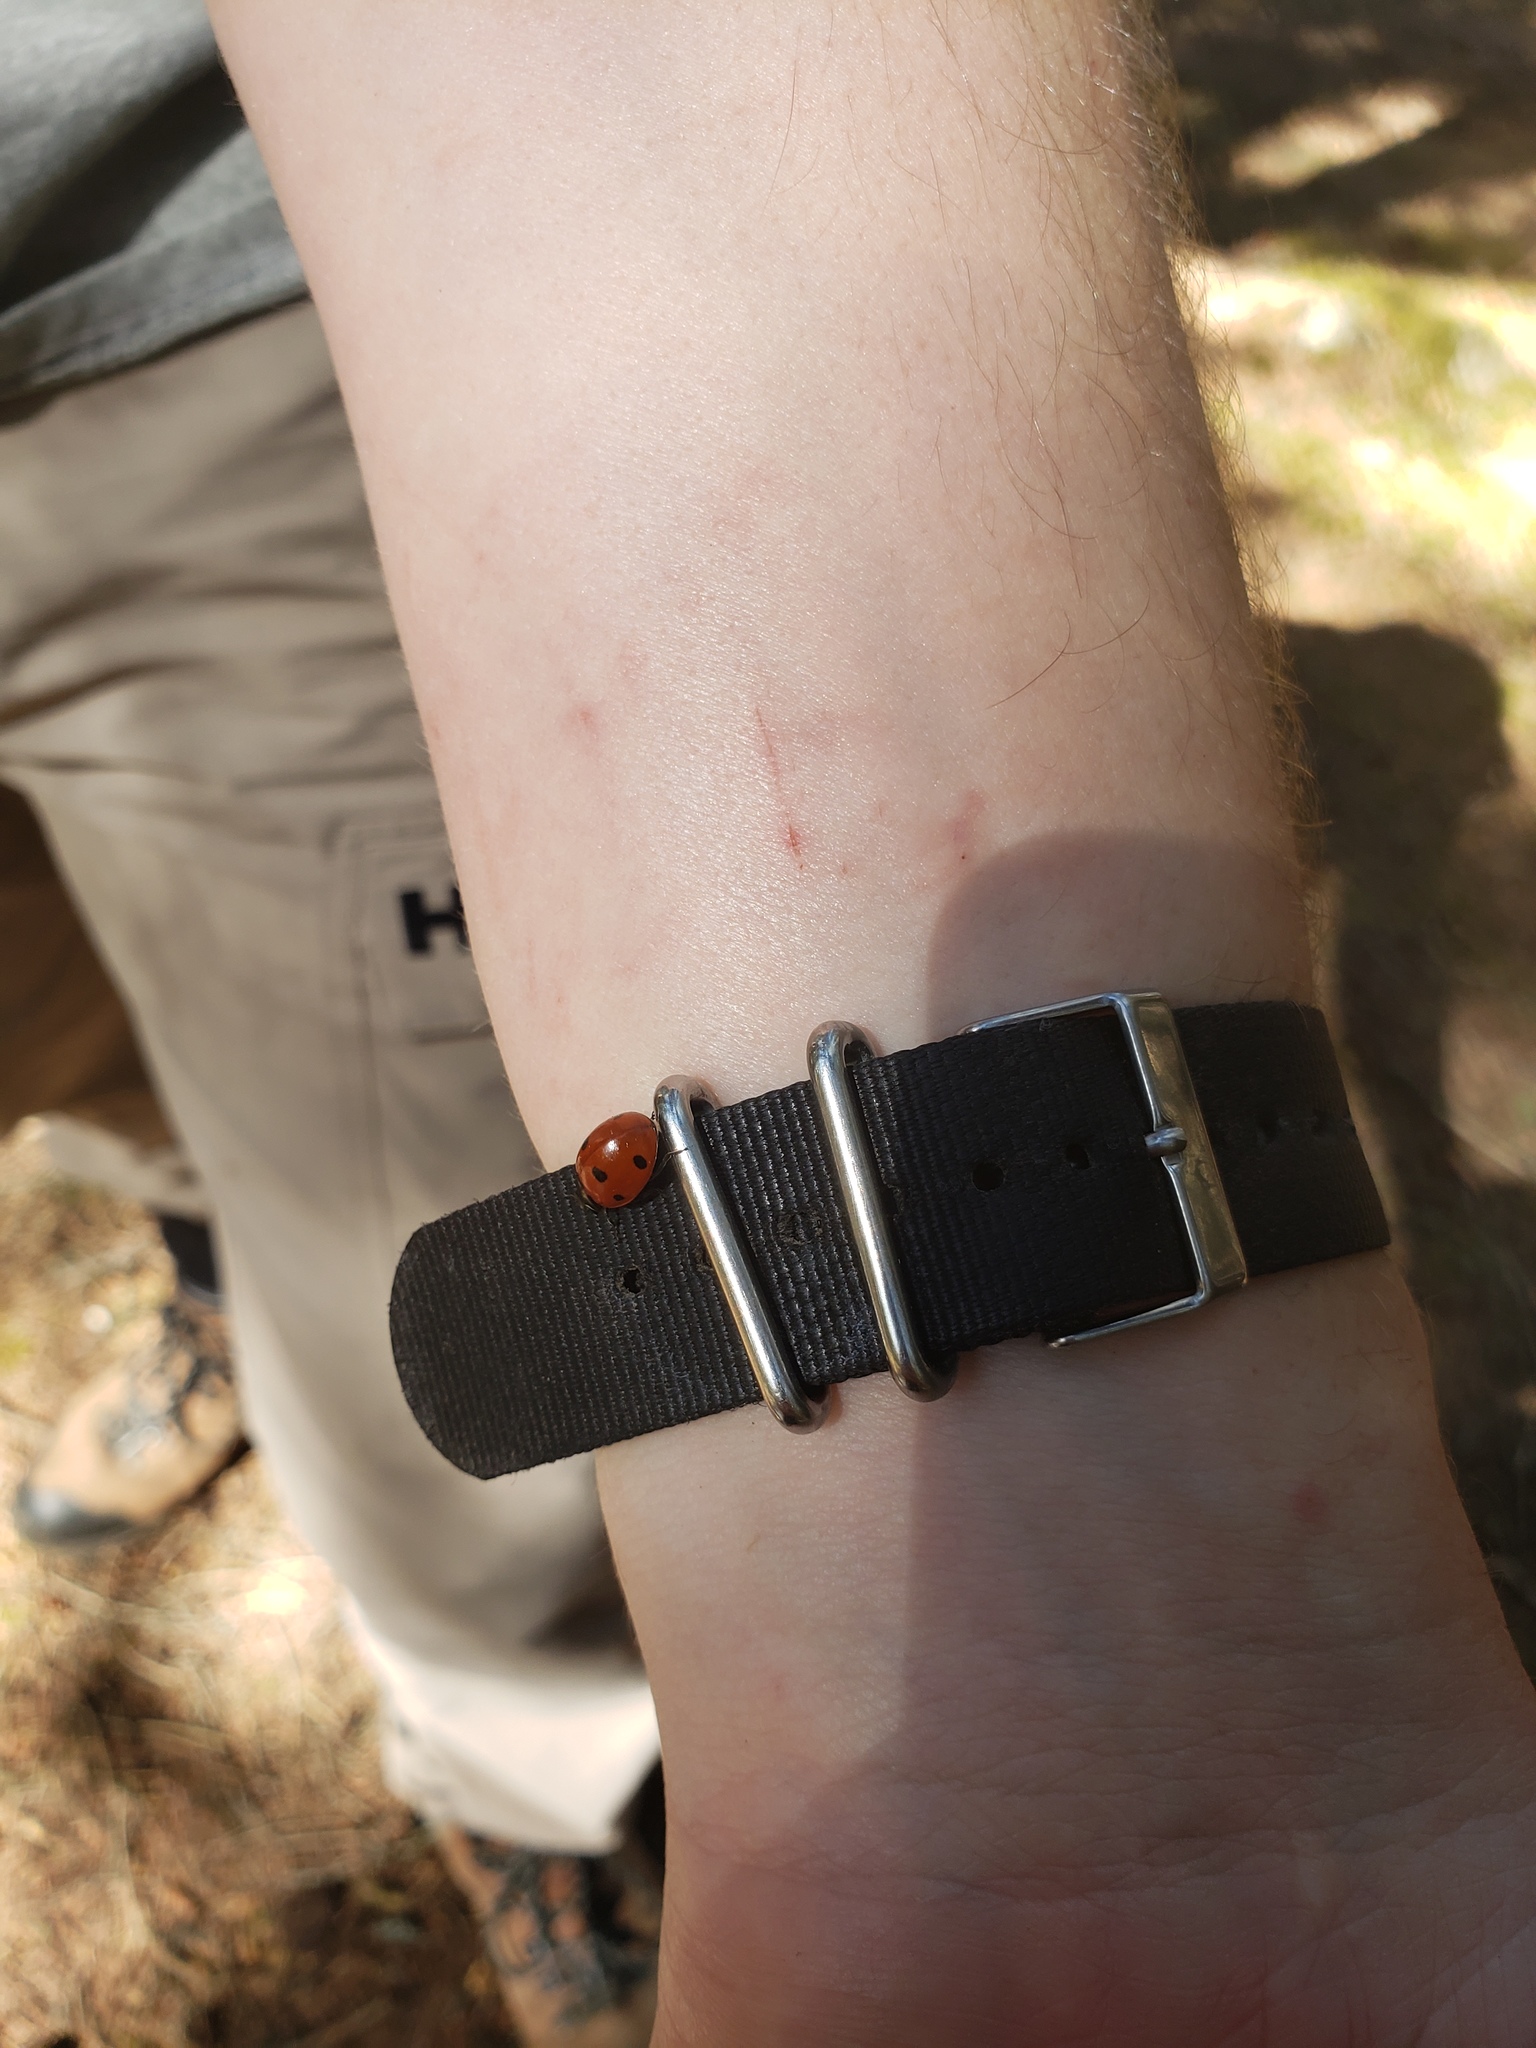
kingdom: Animalia
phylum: Arthropoda
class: Insecta
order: Coleoptera
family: Coccinellidae
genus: Coccinella
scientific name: Coccinella septempunctata
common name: Sevenspotted lady beetle
